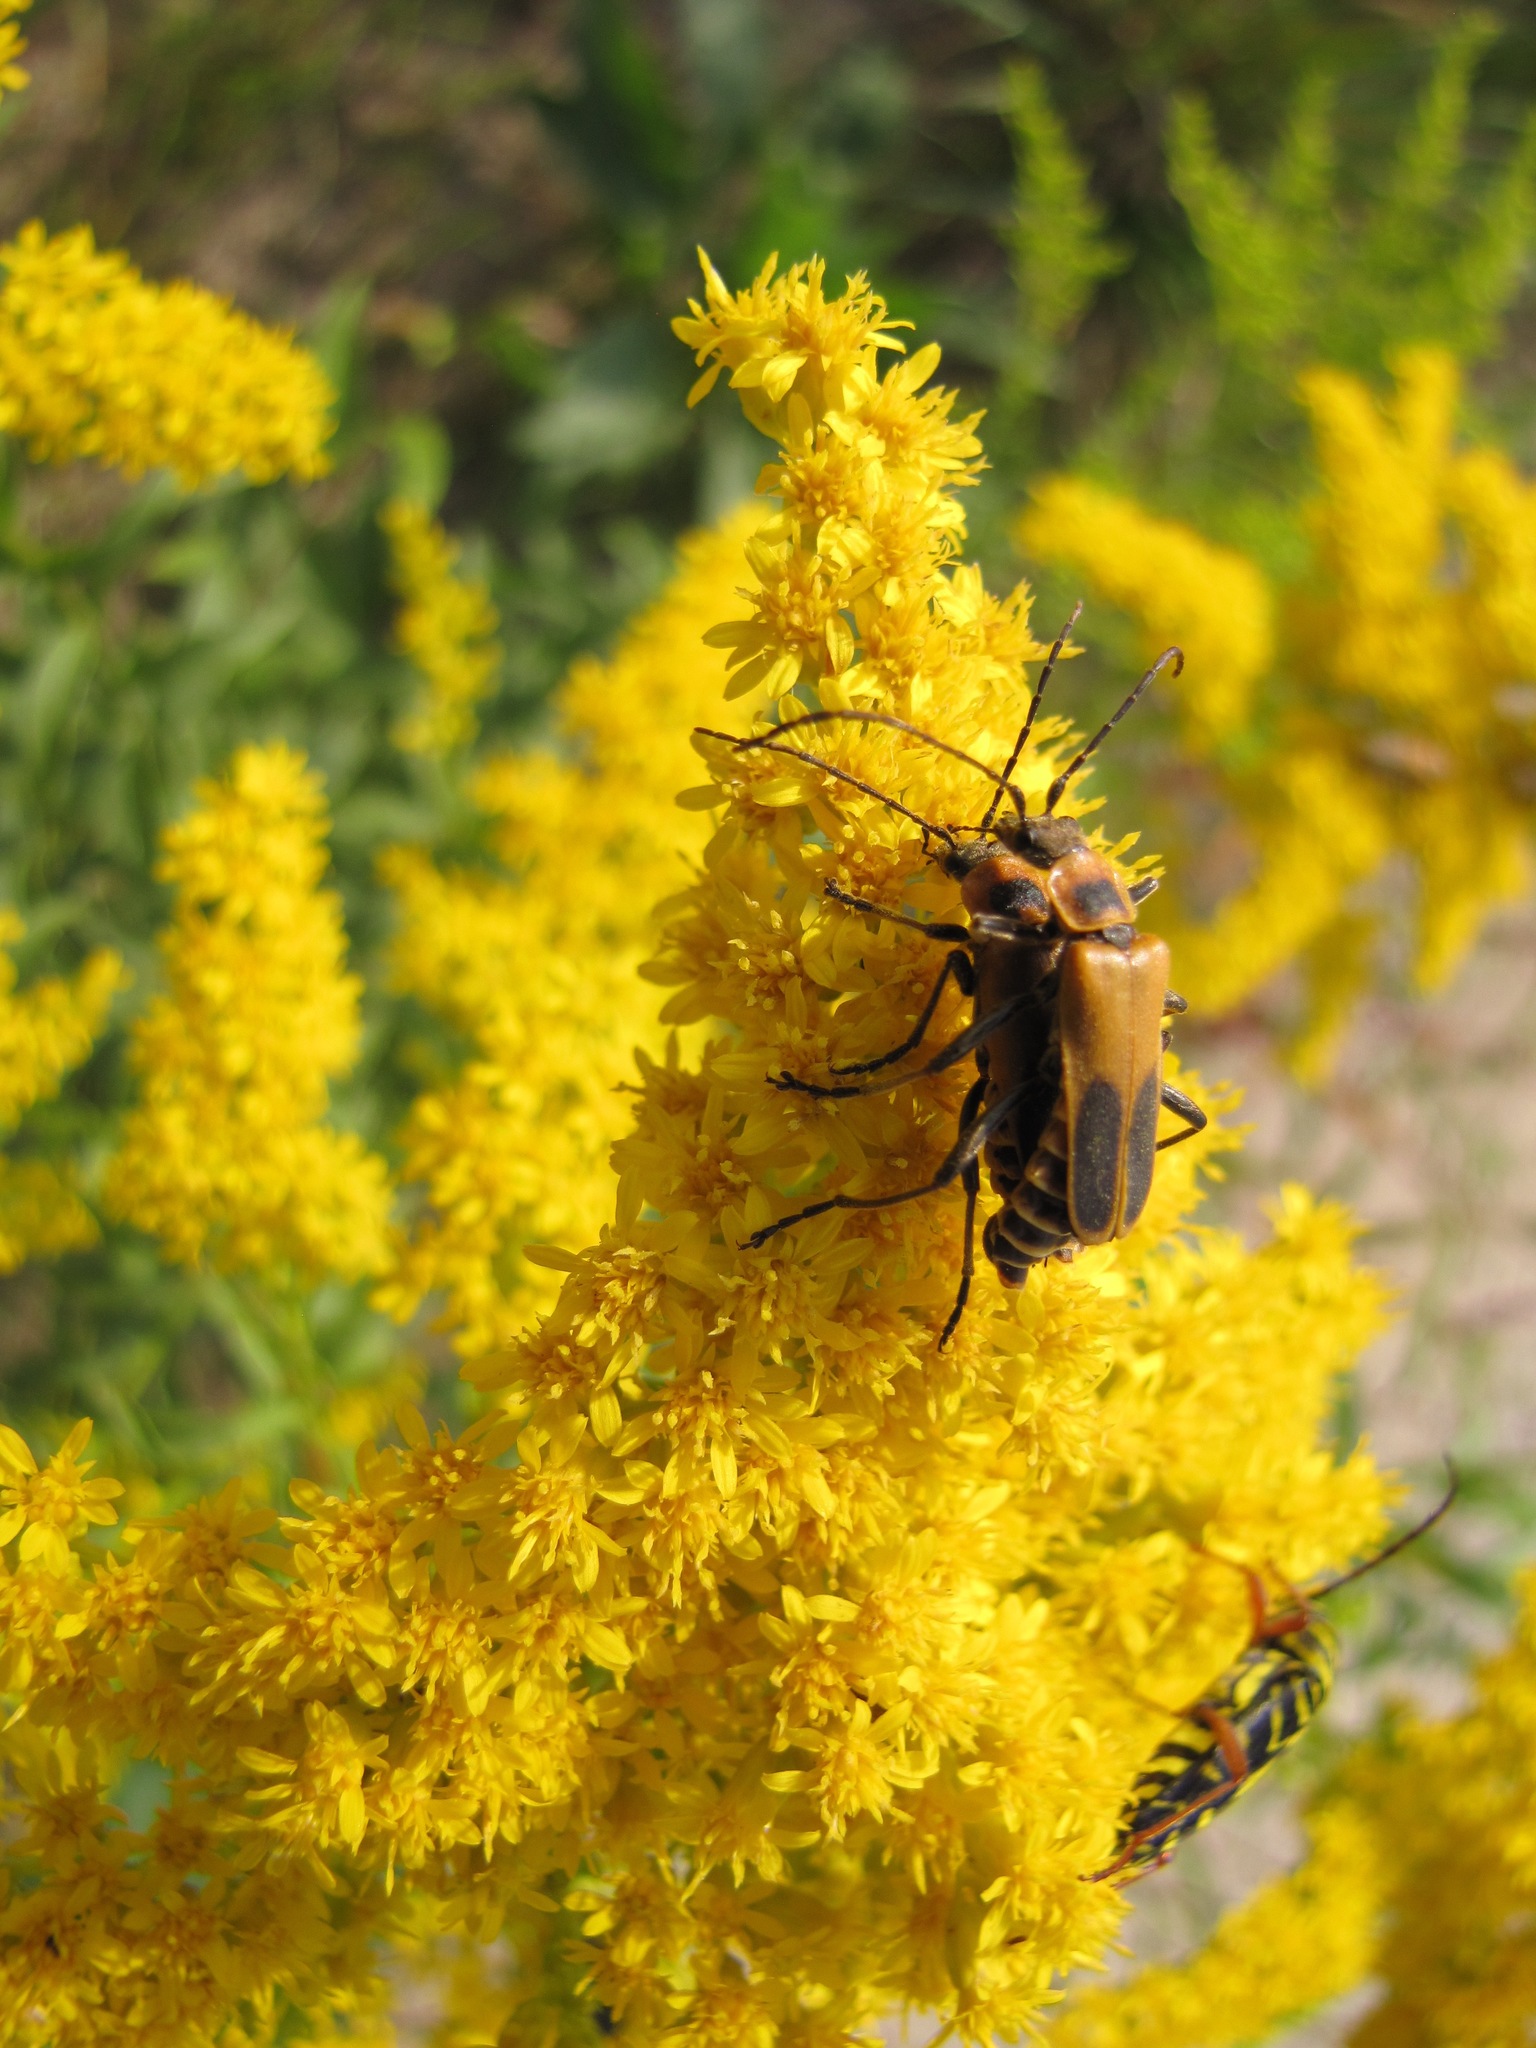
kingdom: Animalia
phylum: Arthropoda
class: Insecta
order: Coleoptera
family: Cantharidae
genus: Chauliognathus
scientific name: Chauliognathus pensylvanicus
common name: Goldenrod soldier beetle
